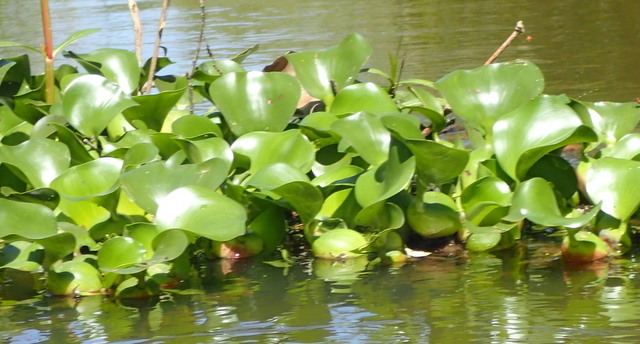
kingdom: Plantae
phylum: Tracheophyta
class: Liliopsida
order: Commelinales
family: Pontederiaceae
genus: Pontederia
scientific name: Pontederia crassipes
